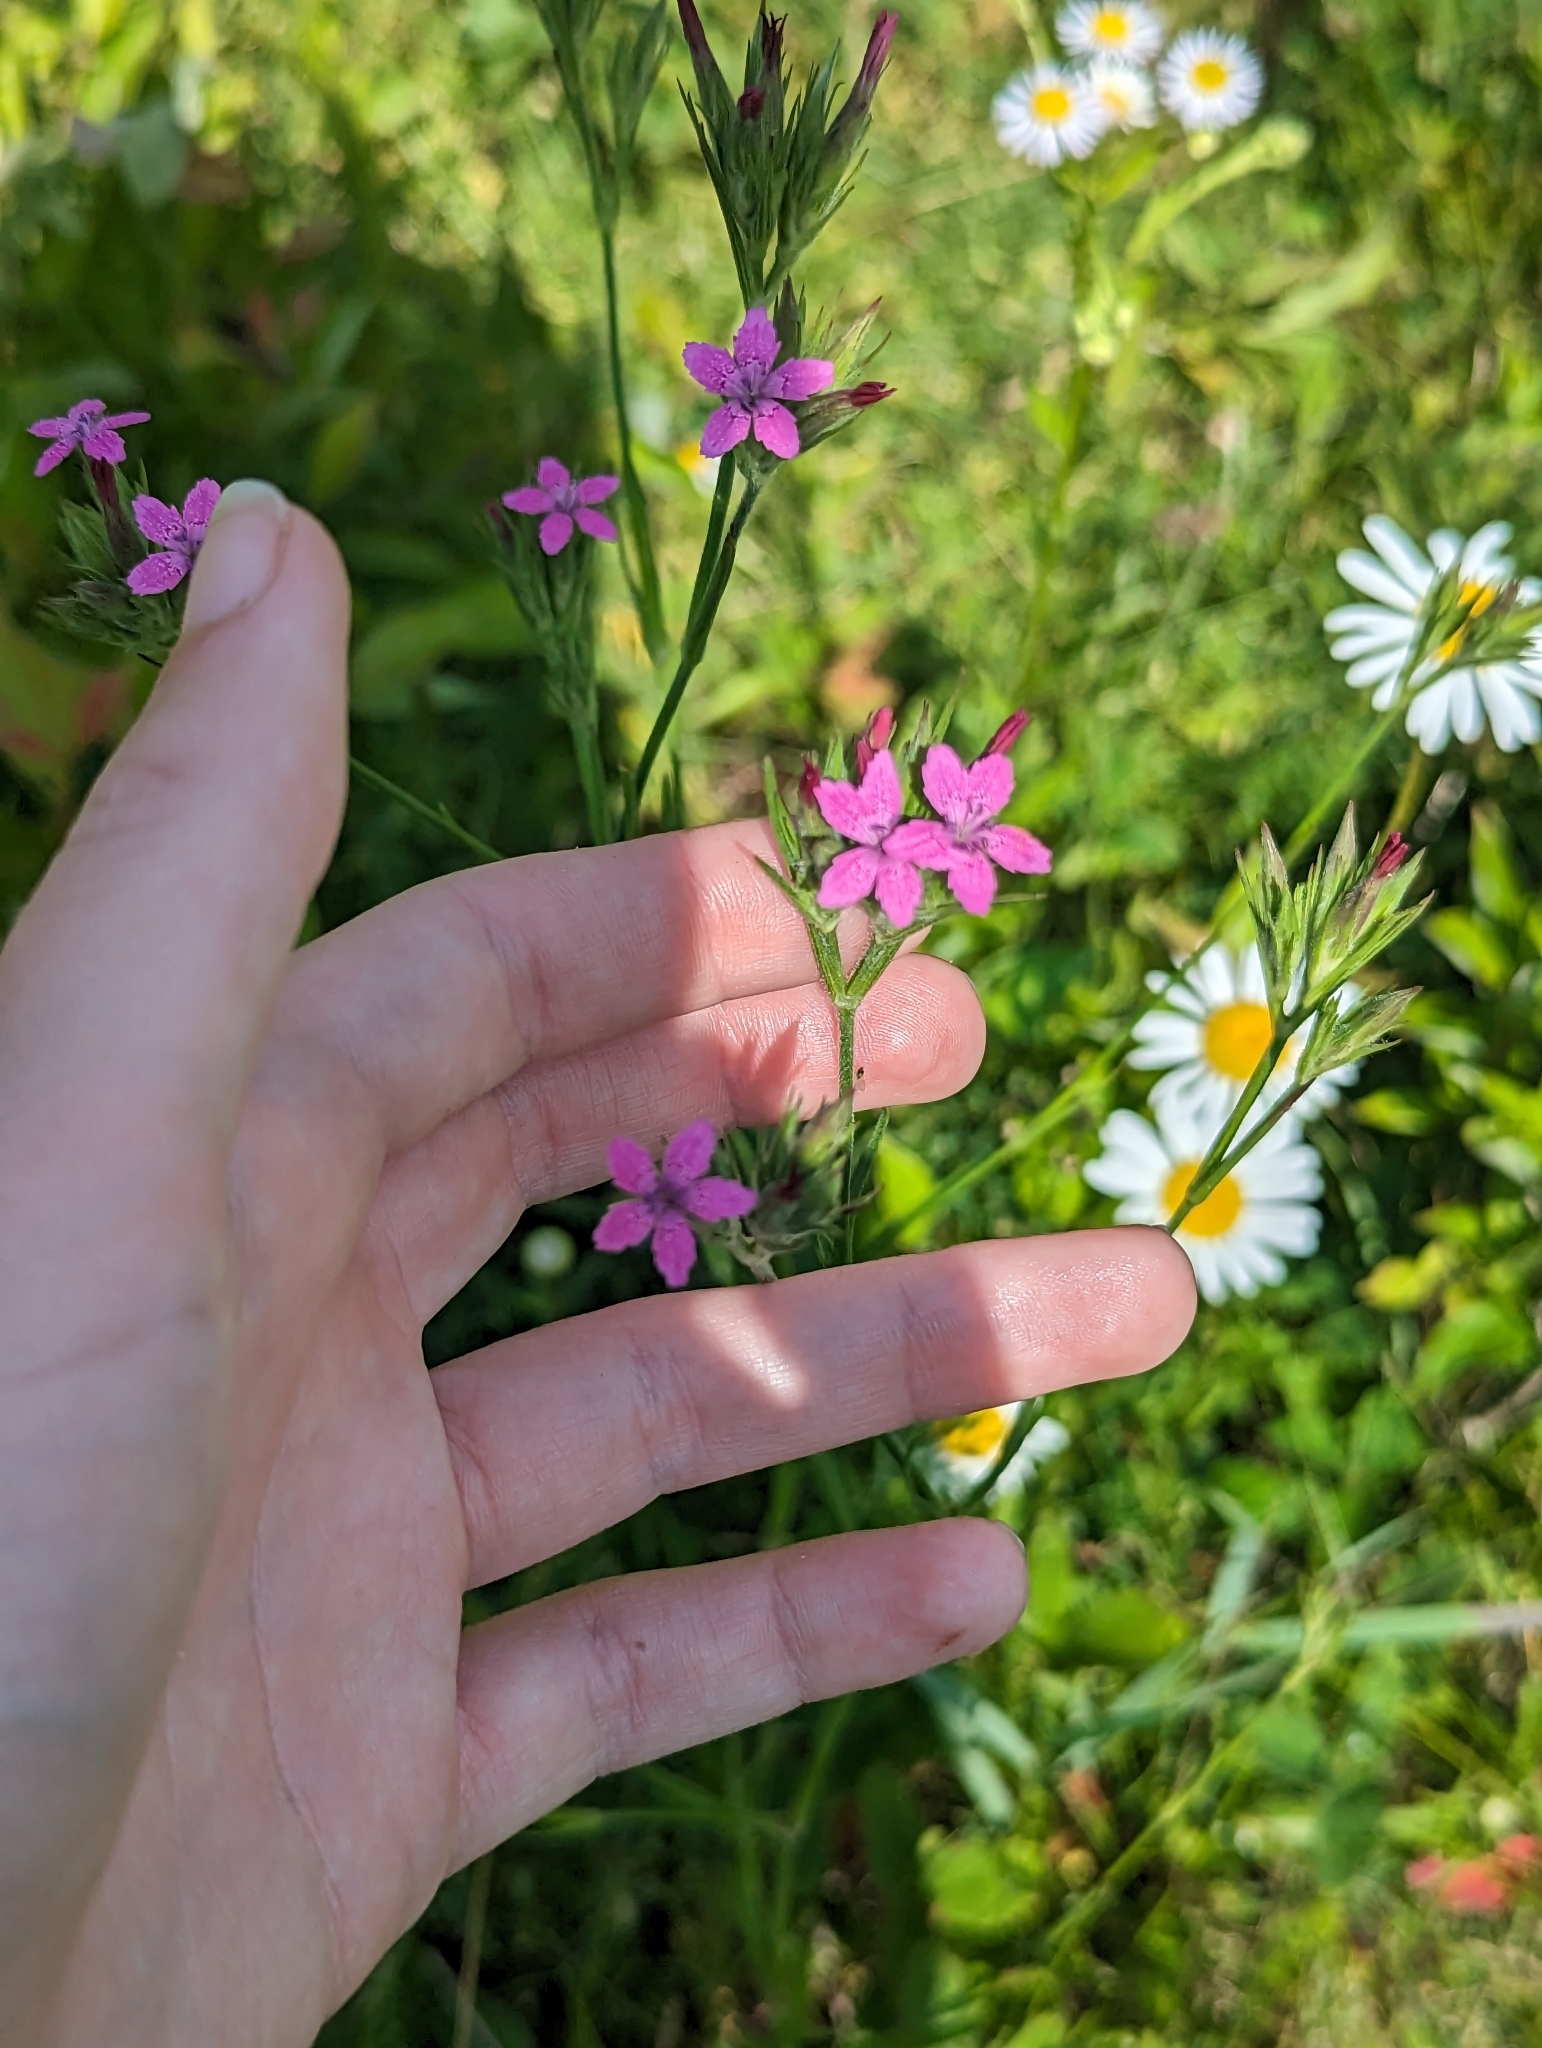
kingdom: Plantae
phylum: Tracheophyta
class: Magnoliopsida
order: Caryophyllales
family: Caryophyllaceae
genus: Dianthus
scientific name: Dianthus armeria
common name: Deptford pink
